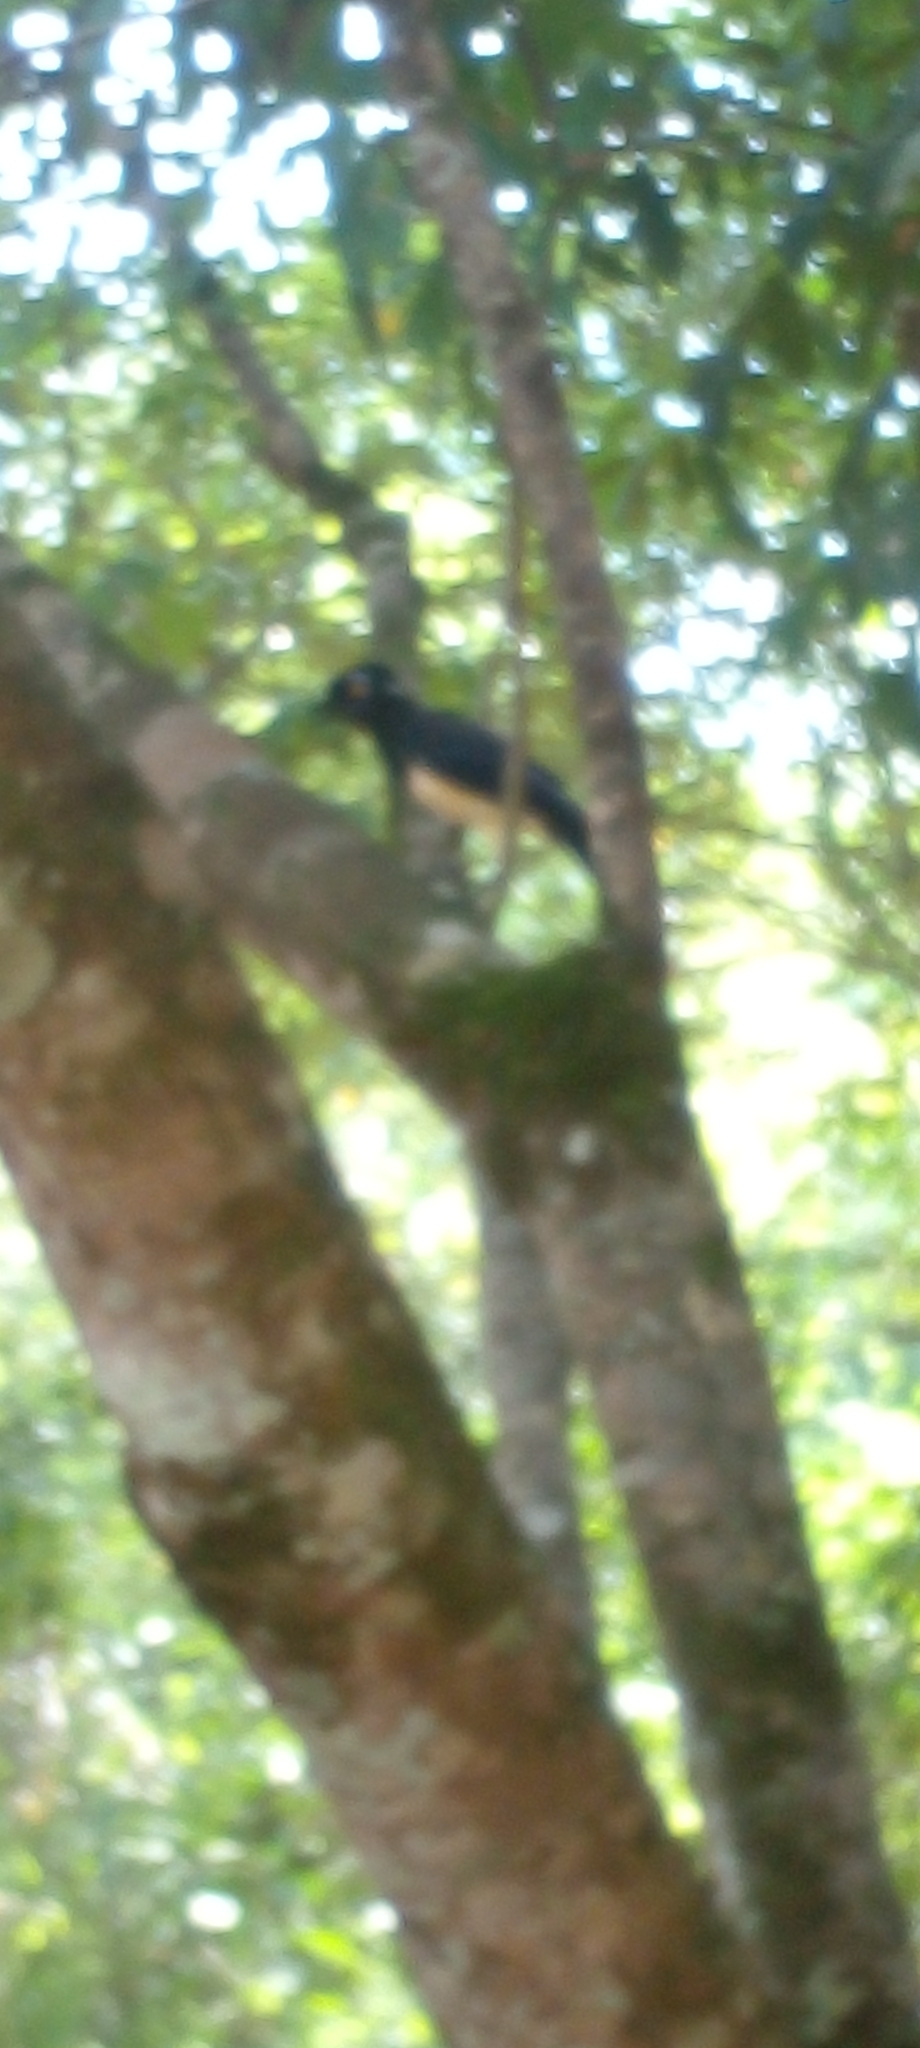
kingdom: Animalia
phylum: Chordata
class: Aves
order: Passeriformes
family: Corvidae
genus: Cyanocorax
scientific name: Cyanocorax chrysops
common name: Plush-crested jay
